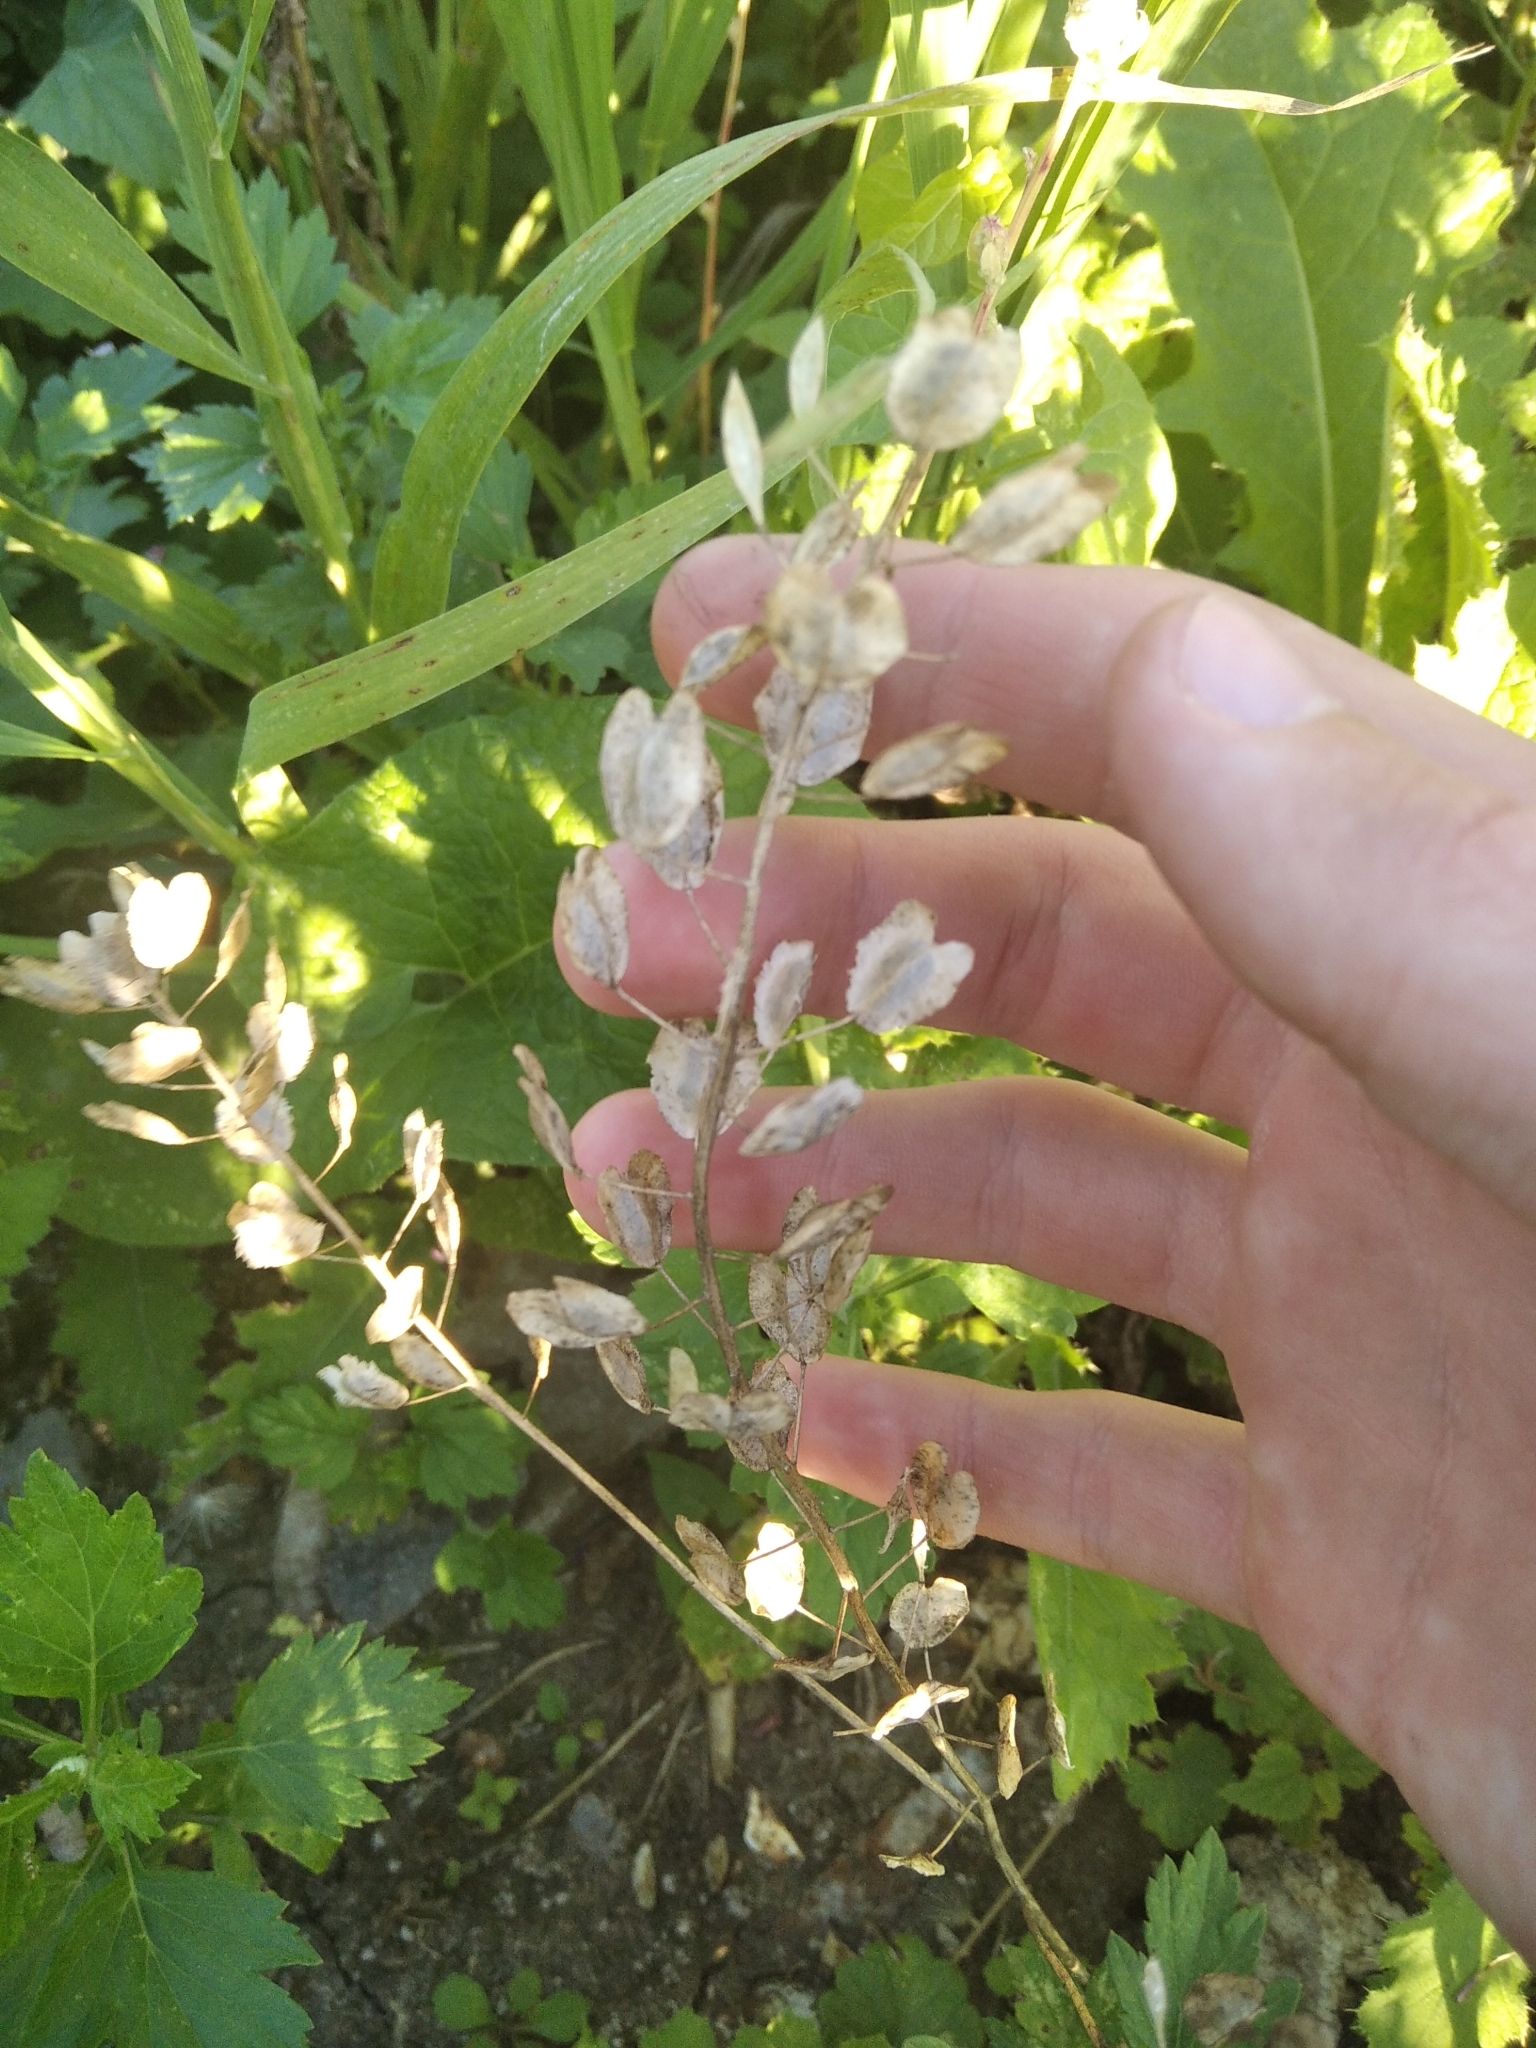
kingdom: Plantae
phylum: Tracheophyta
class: Magnoliopsida
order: Brassicales
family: Brassicaceae
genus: Thlaspi
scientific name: Thlaspi arvense
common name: Field pennycress
